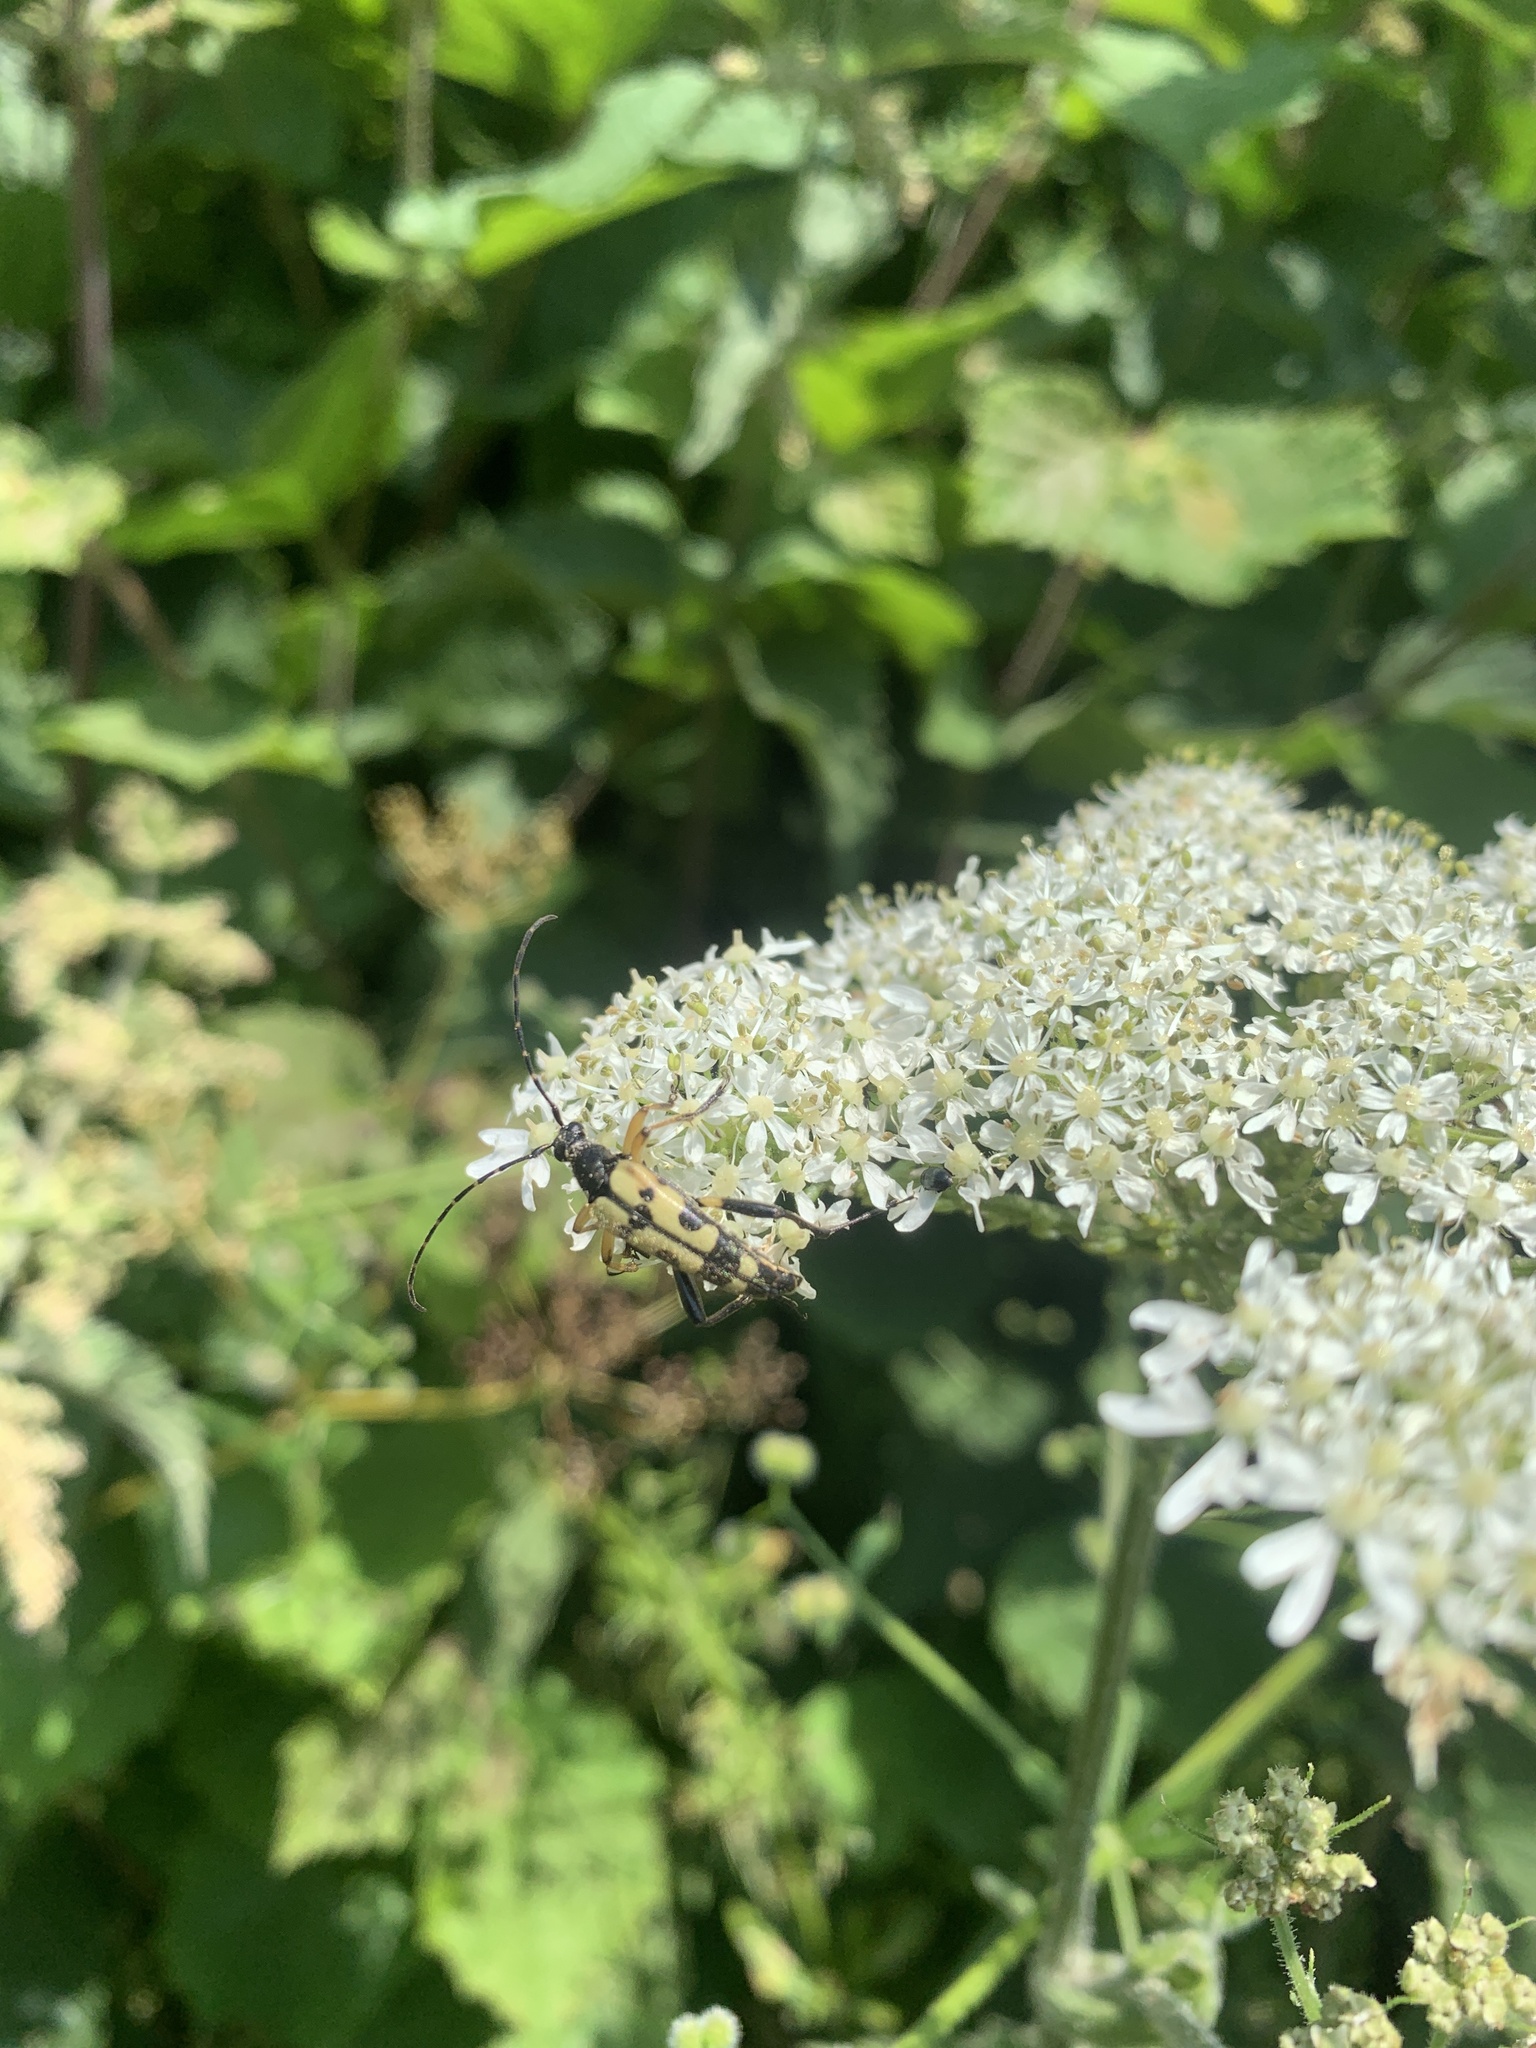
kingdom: Animalia
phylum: Arthropoda
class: Insecta
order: Coleoptera
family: Cerambycidae
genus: Rutpela
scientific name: Rutpela maculata
